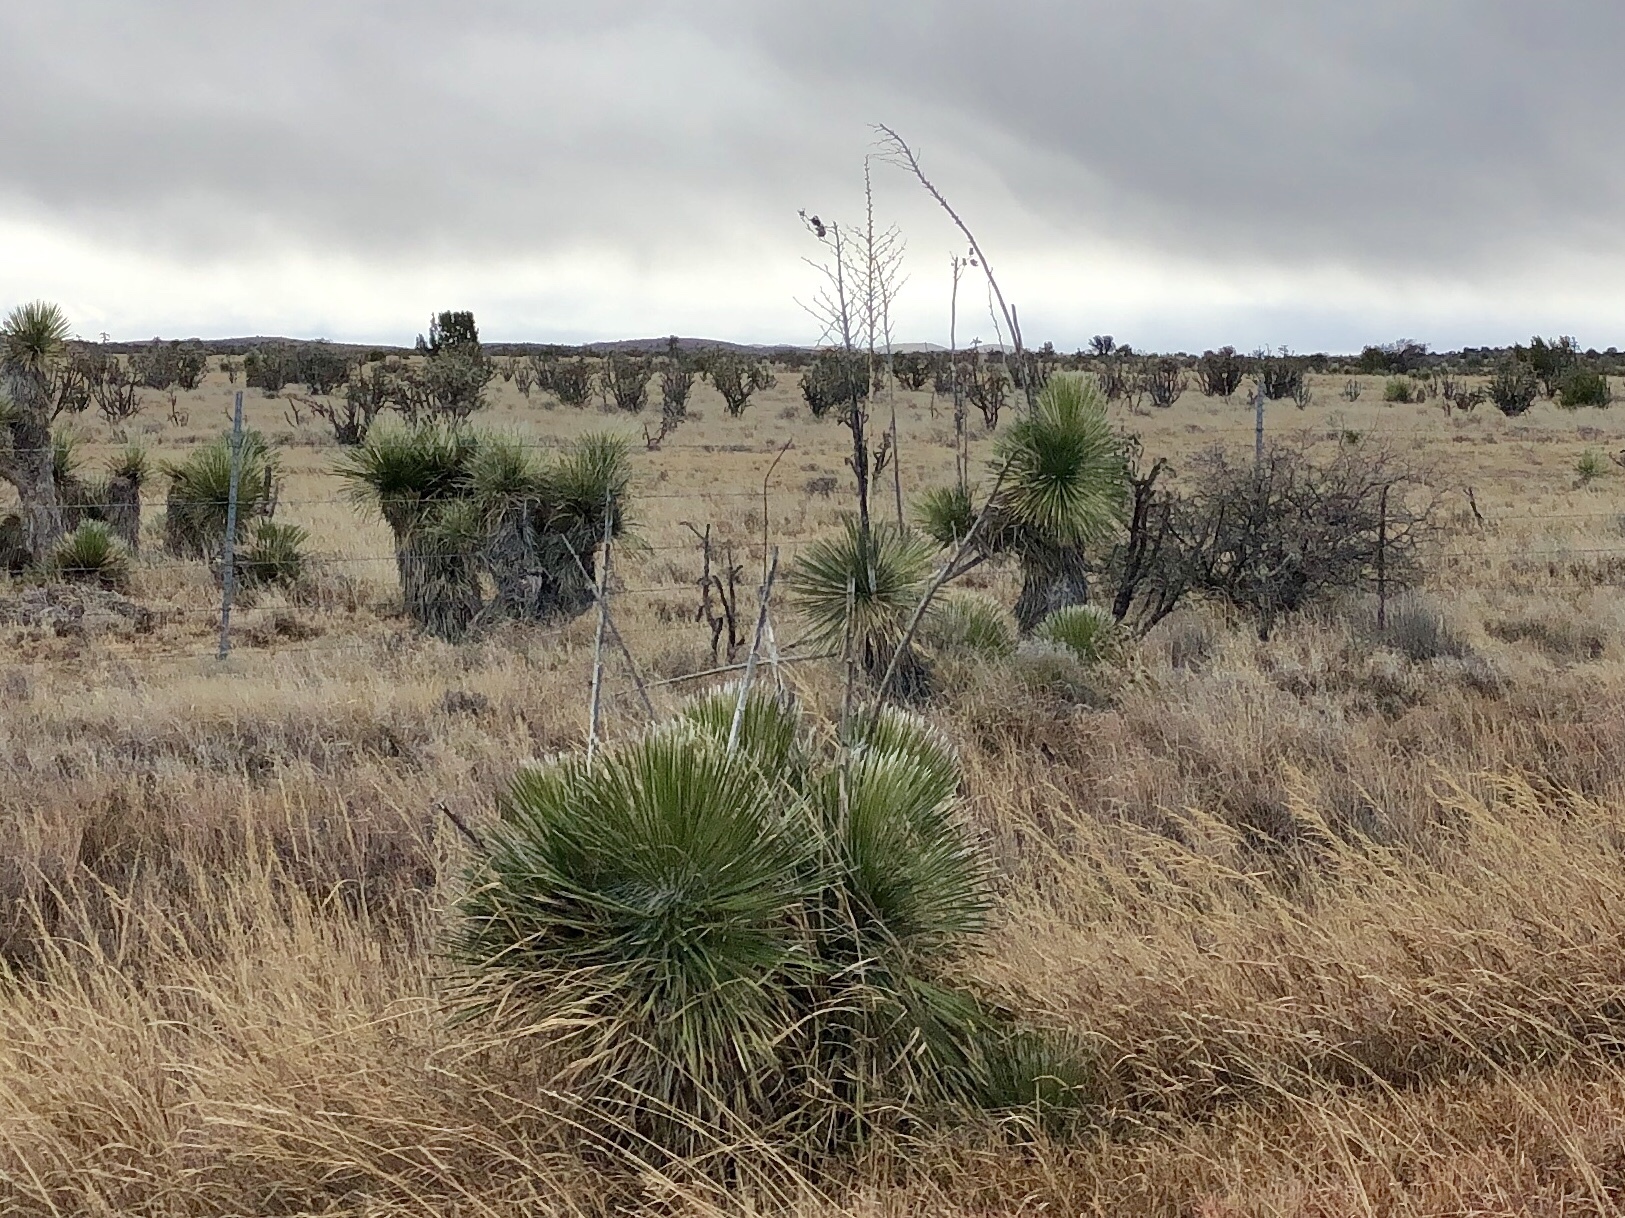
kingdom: Plantae
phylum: Tracheophyta
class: Liliopsida
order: Asparagales
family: Asparagaceae
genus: Yucca
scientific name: Yucca elata
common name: Palmella
